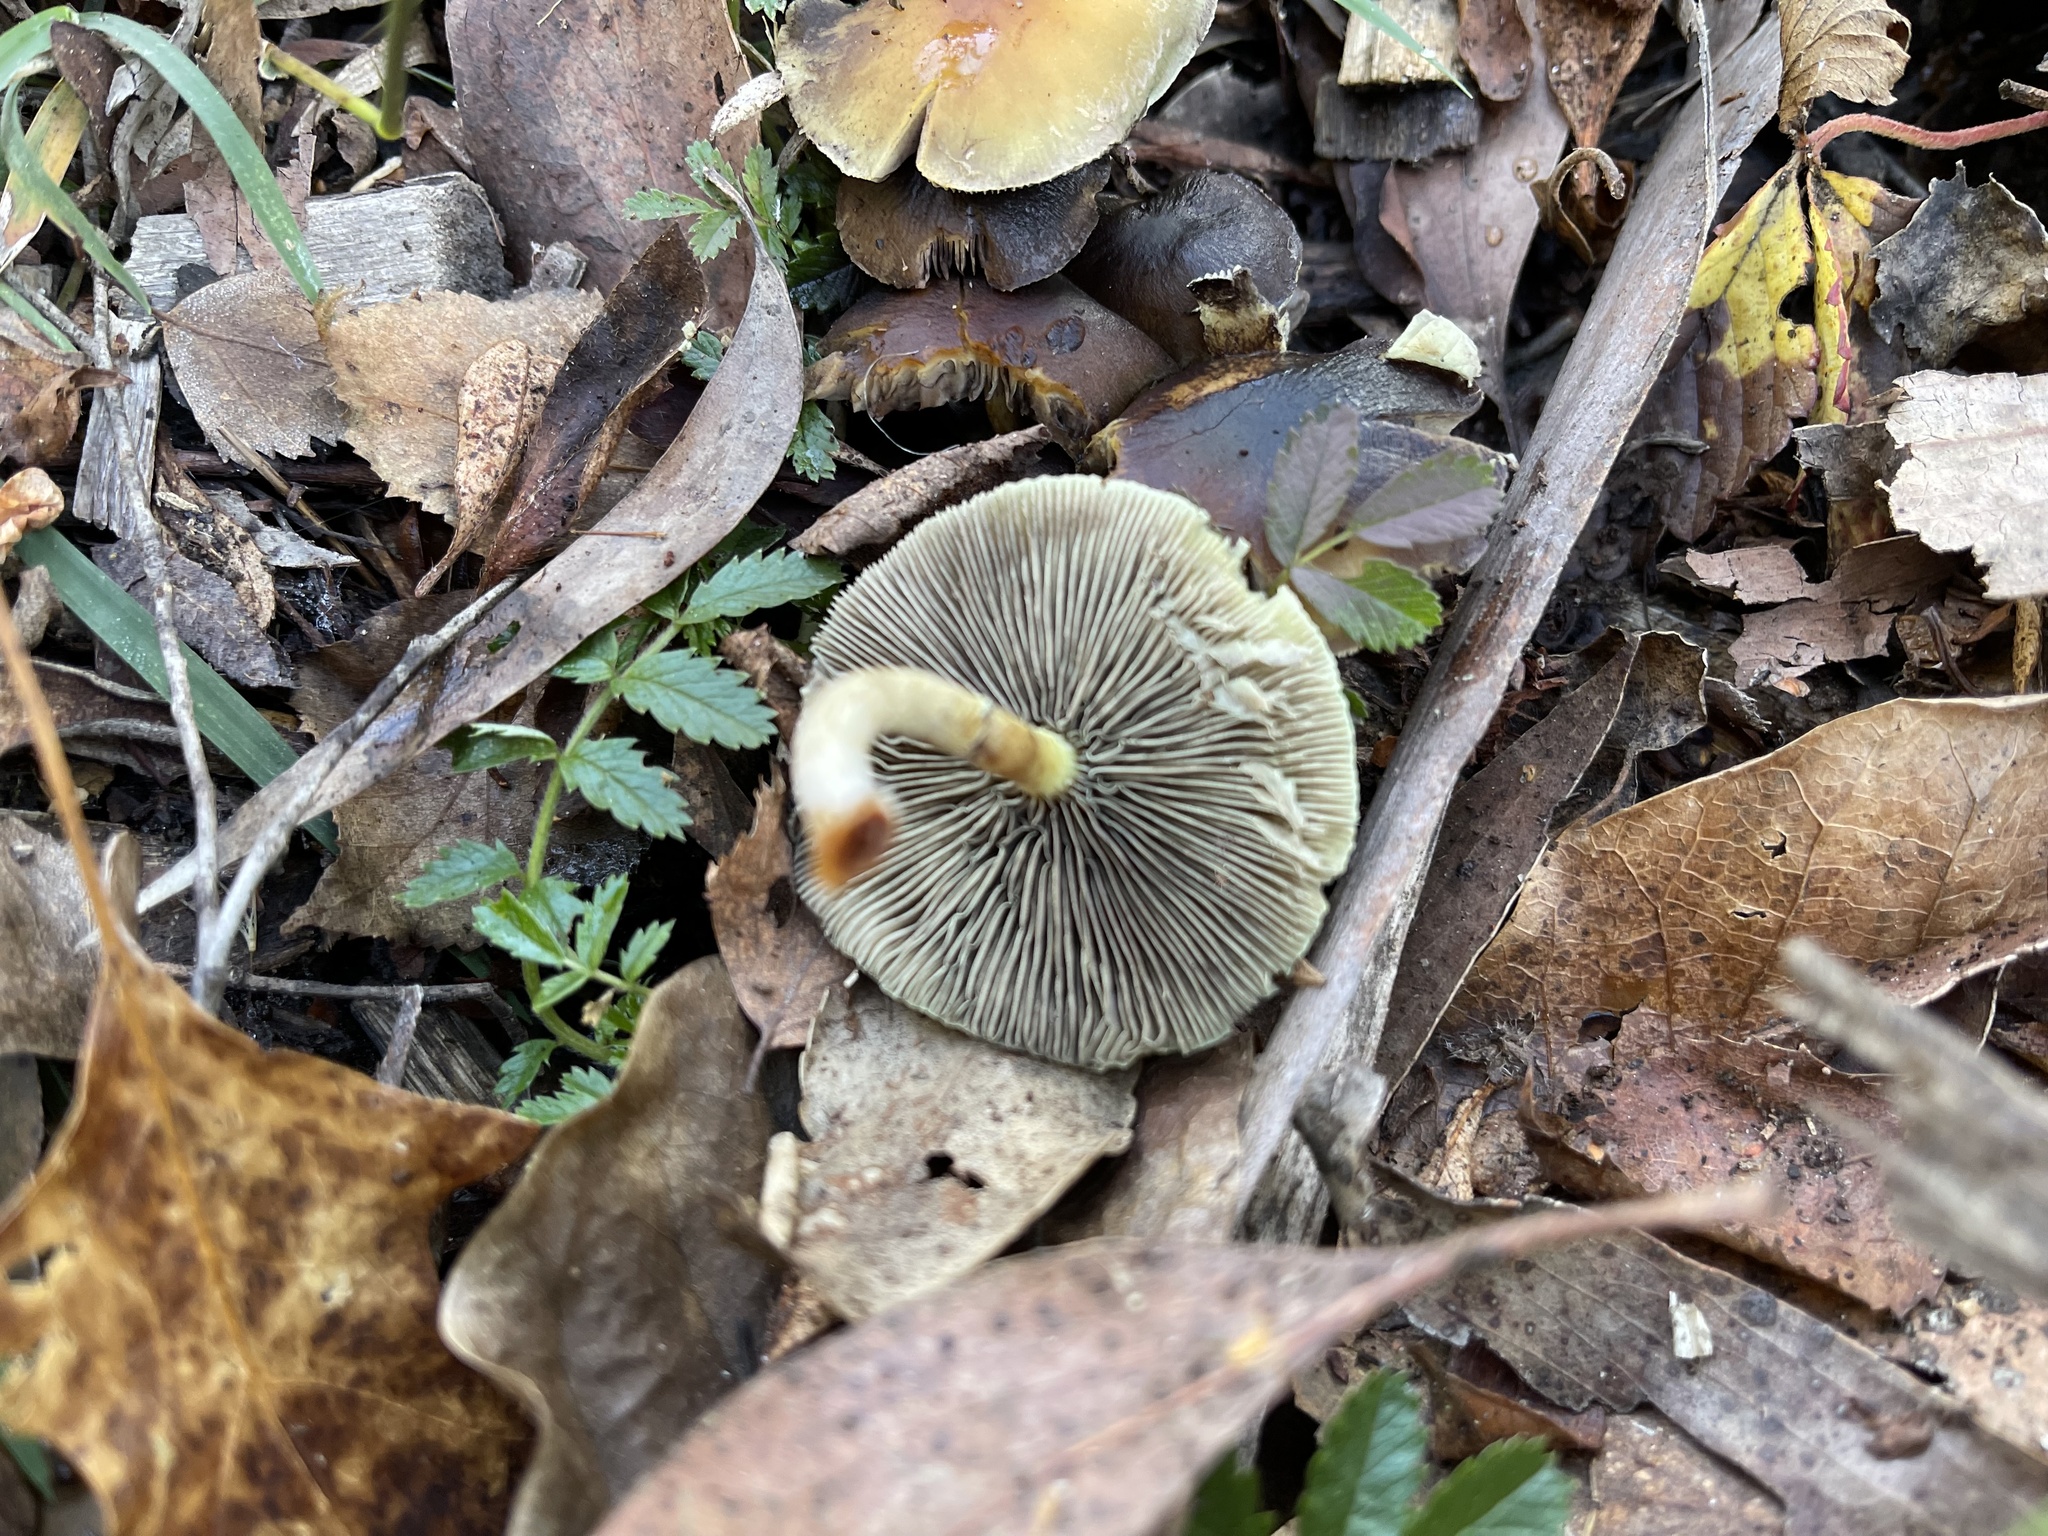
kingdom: Fungi
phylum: Basidiomycota
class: Agaricomycetes
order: Agaricales
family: Strophariaceae
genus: Hypholoma
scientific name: Hypholoma fasciculare
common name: Sulphur tuft
